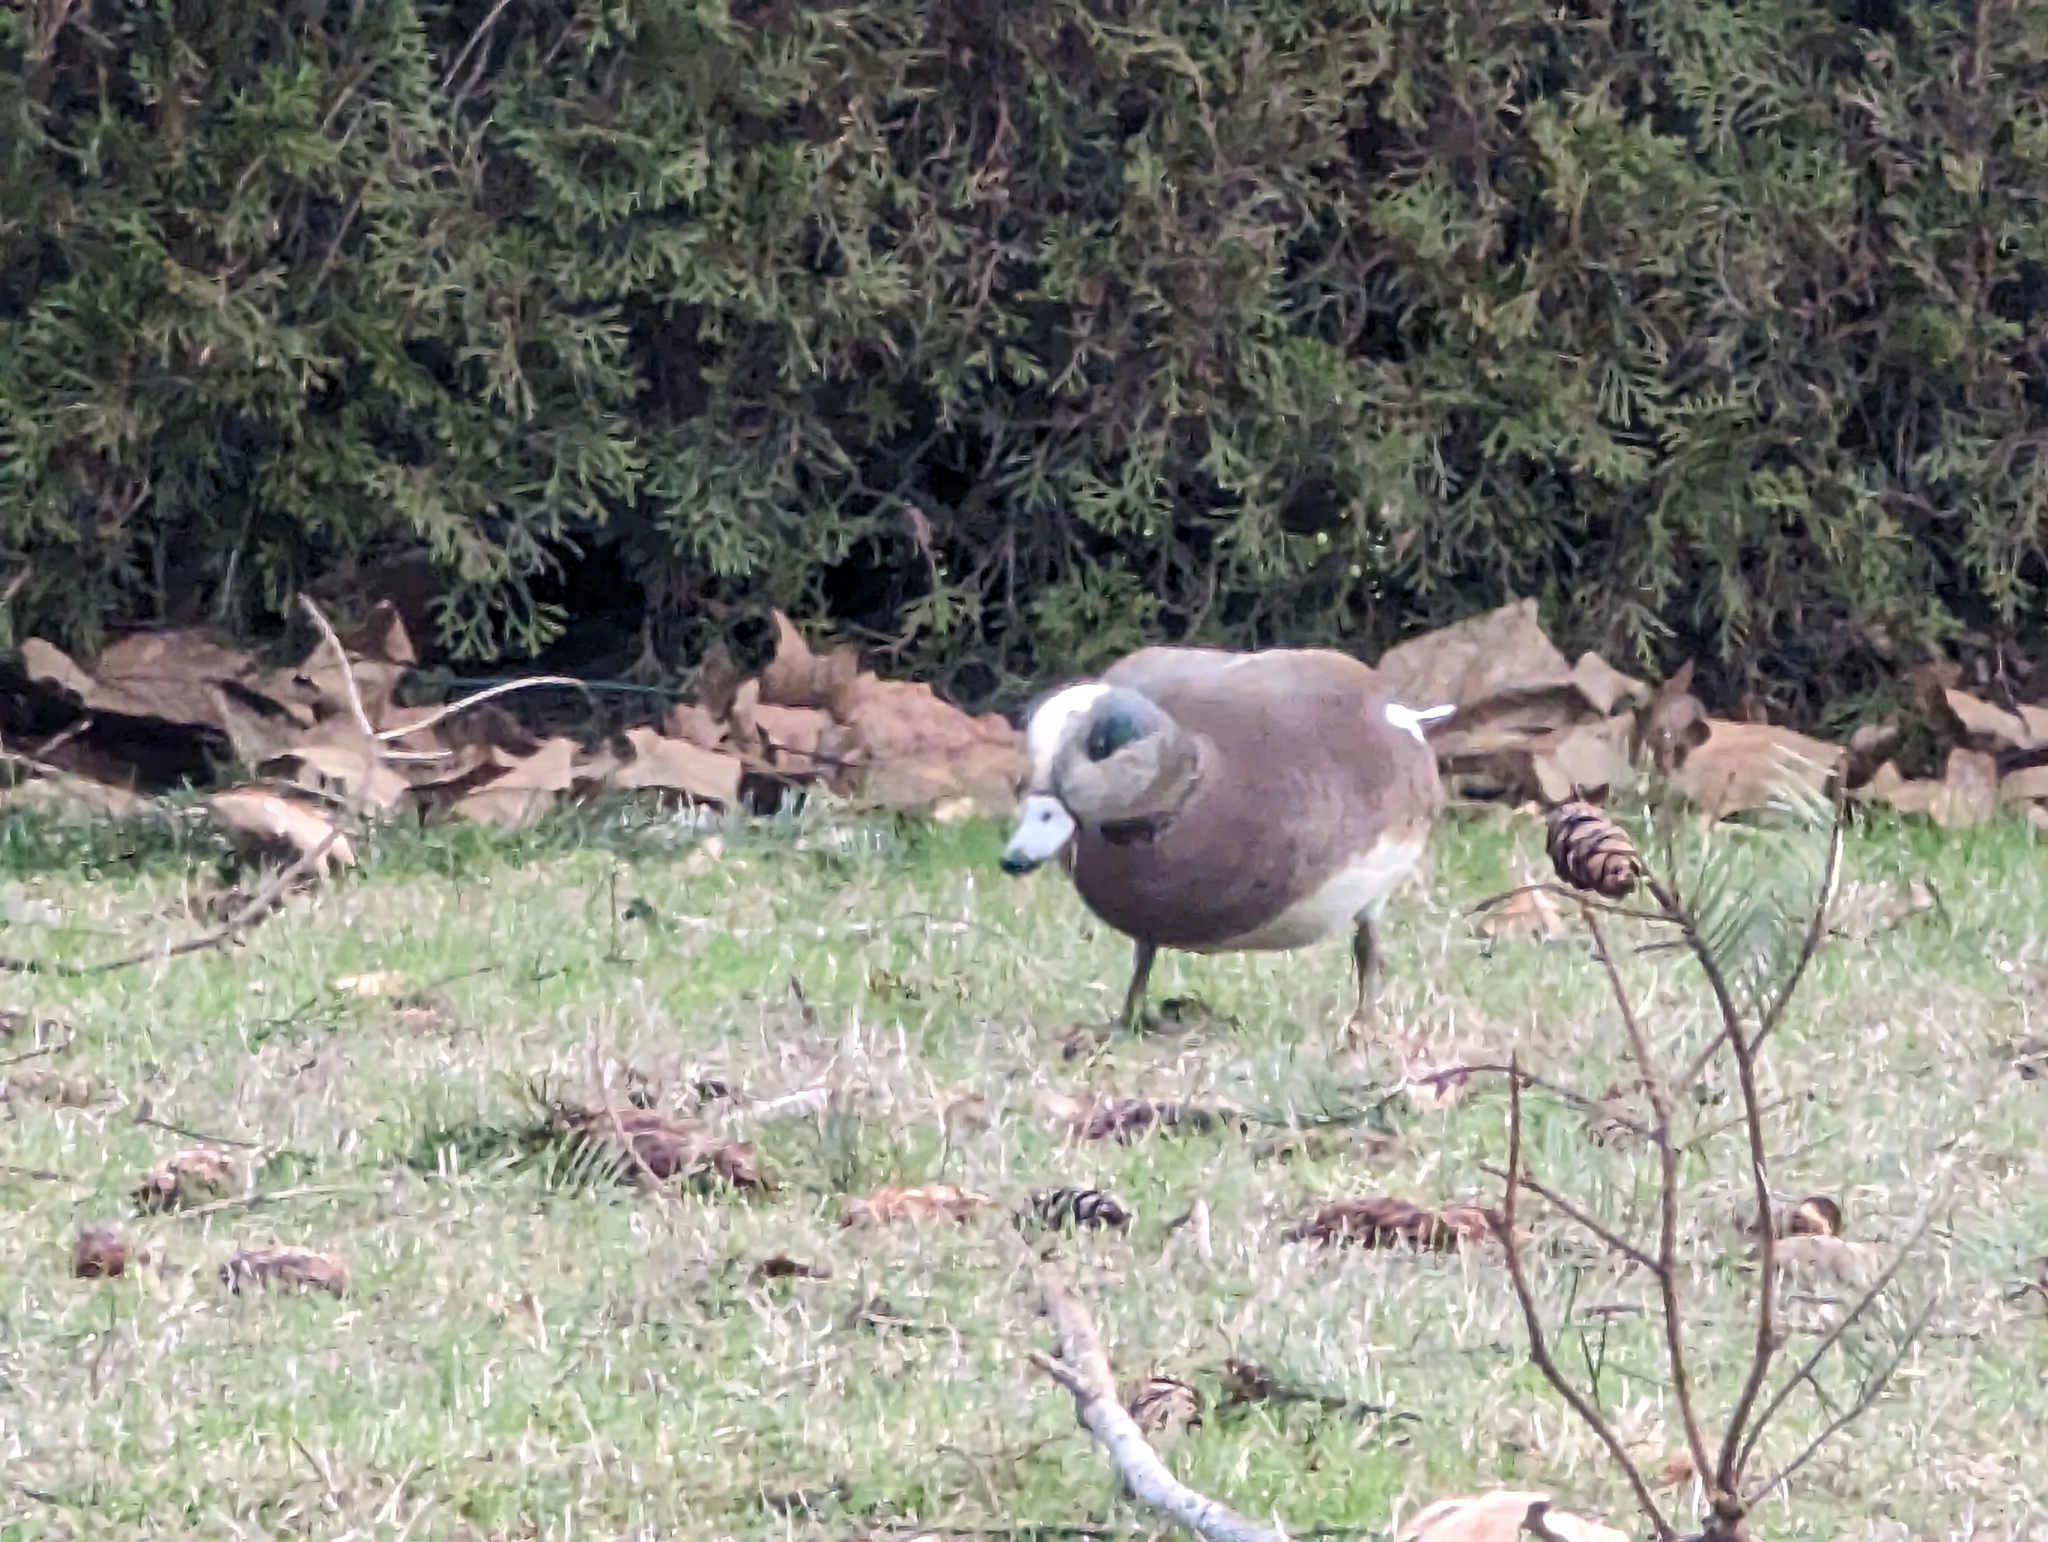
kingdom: Animalia
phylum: Chordata
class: Aves
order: Anseriformes
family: Anatidae
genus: Mareca
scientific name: Mareca americana
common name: American wigeon
